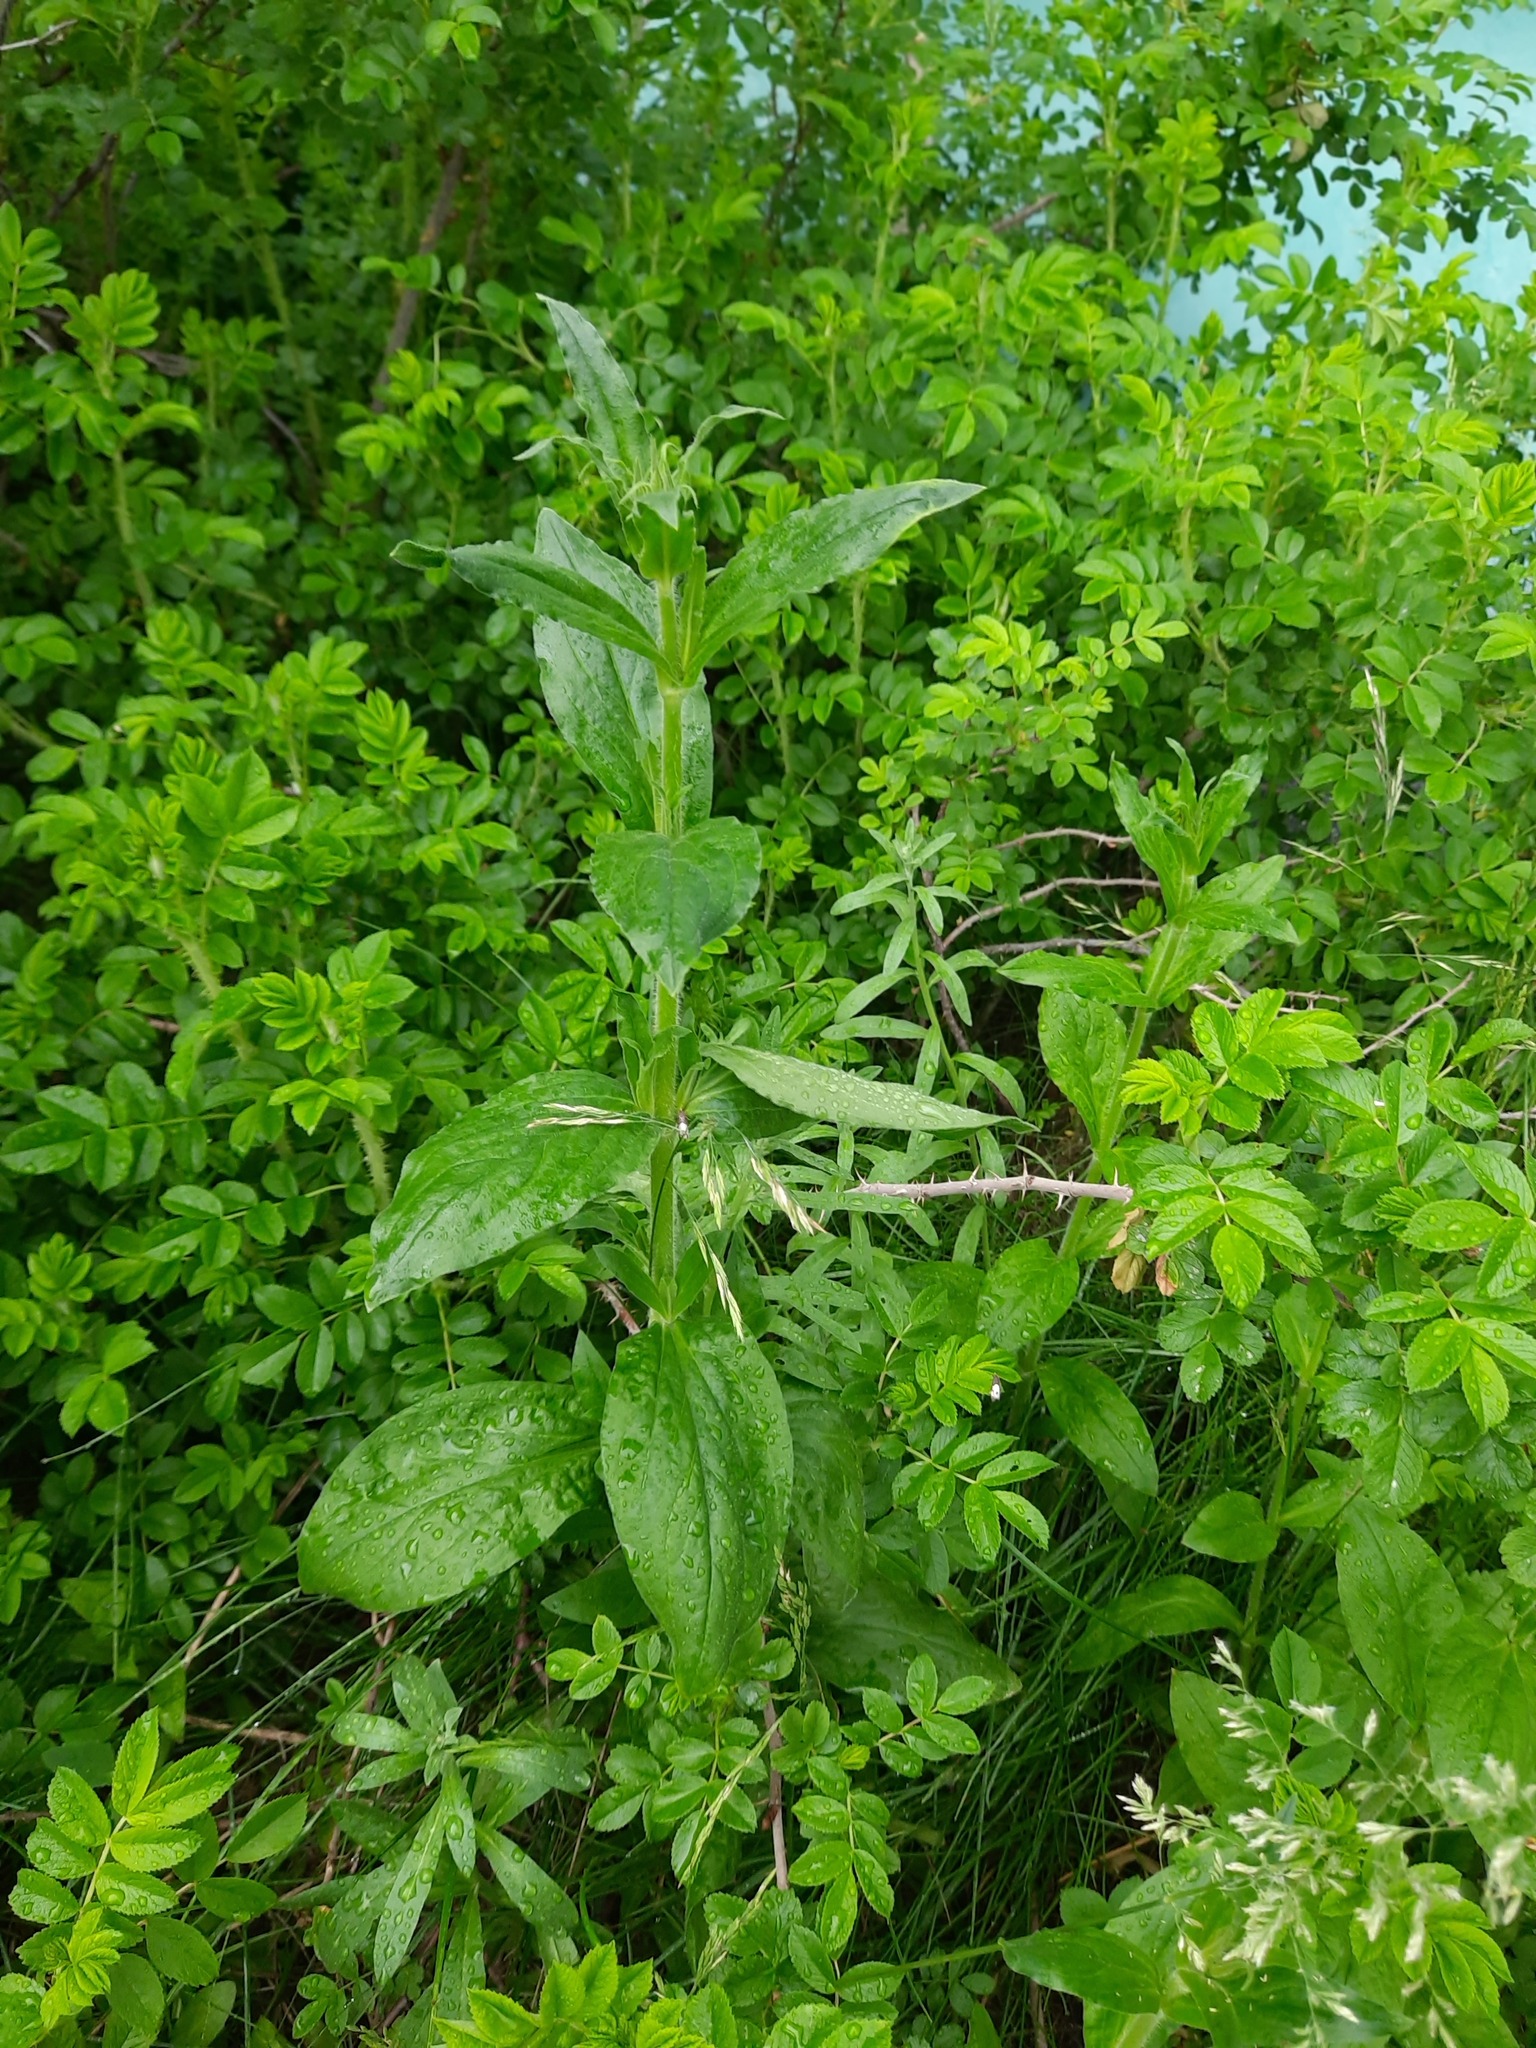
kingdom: Plantae
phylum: Tracheophyta
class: Magnoliopsida
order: Caryophyllales
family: Caryophyllaceae
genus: Silene
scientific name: Silene latifolia
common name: White campion
